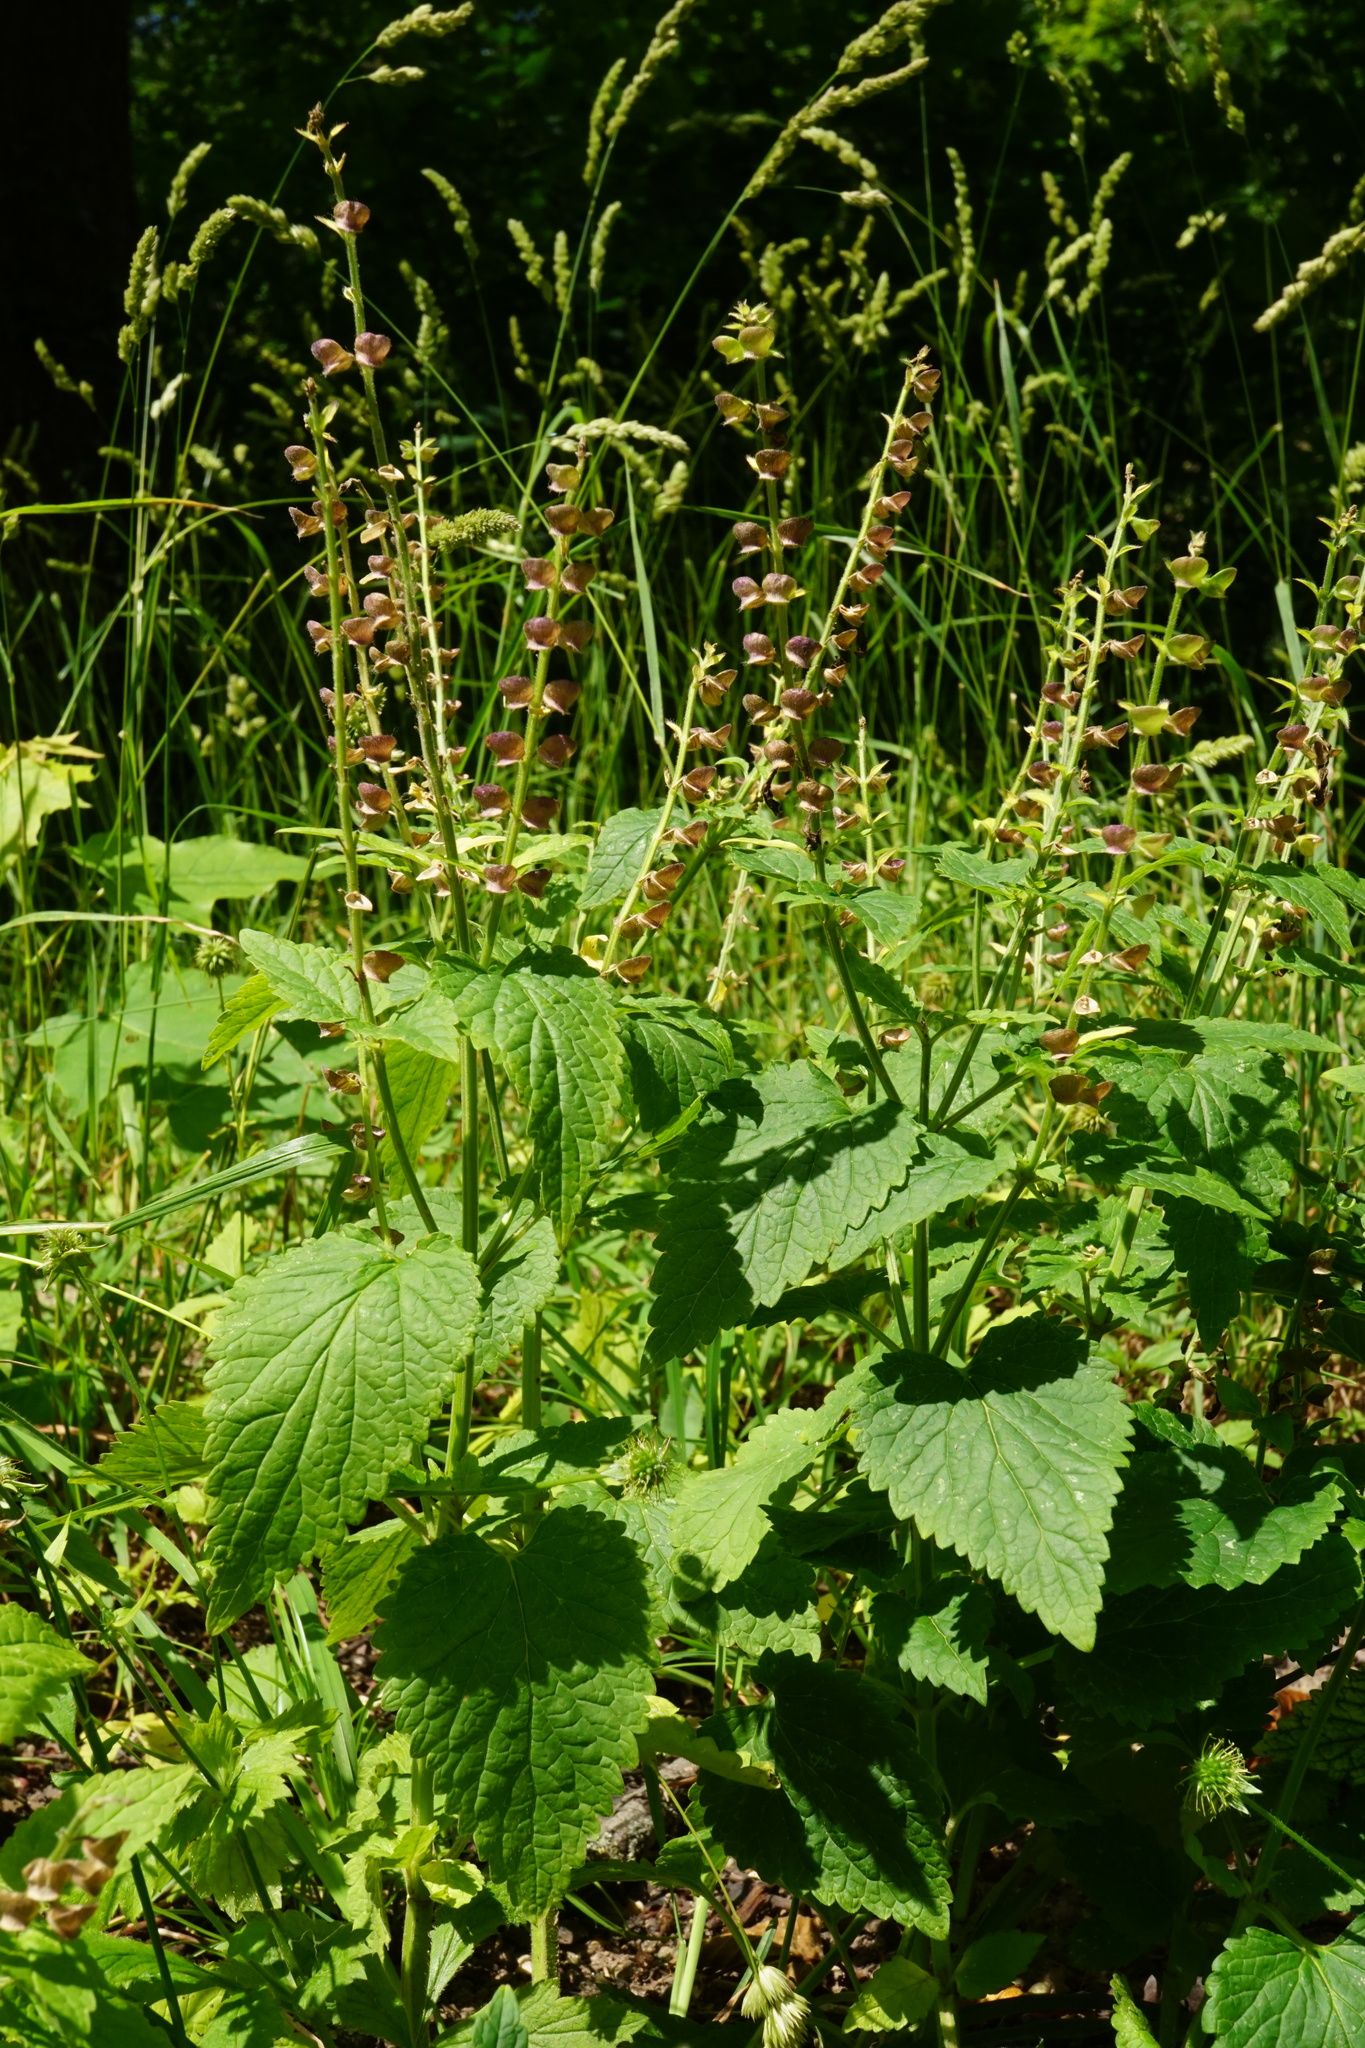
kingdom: Plantae
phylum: Tracheophyta
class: Magnoliopsida
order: Lamiales
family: Lamiaceae
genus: Scutellaria
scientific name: Scutellaria altissima
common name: Somerset skullcap
